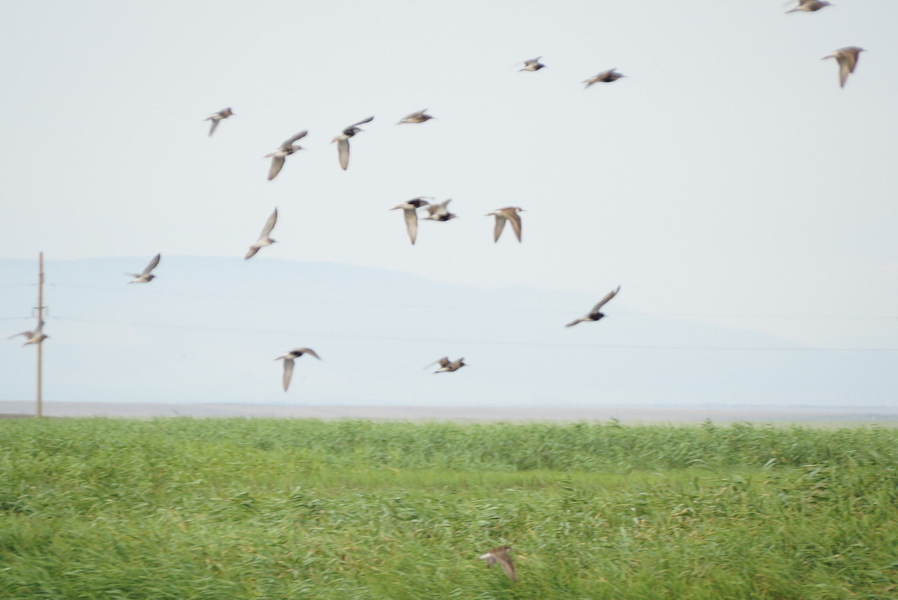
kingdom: Animalia
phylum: Chordata
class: Aves
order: Charadriiformes
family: Scolopacidae
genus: Calidris
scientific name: Calidris pugnax
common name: Ruff
